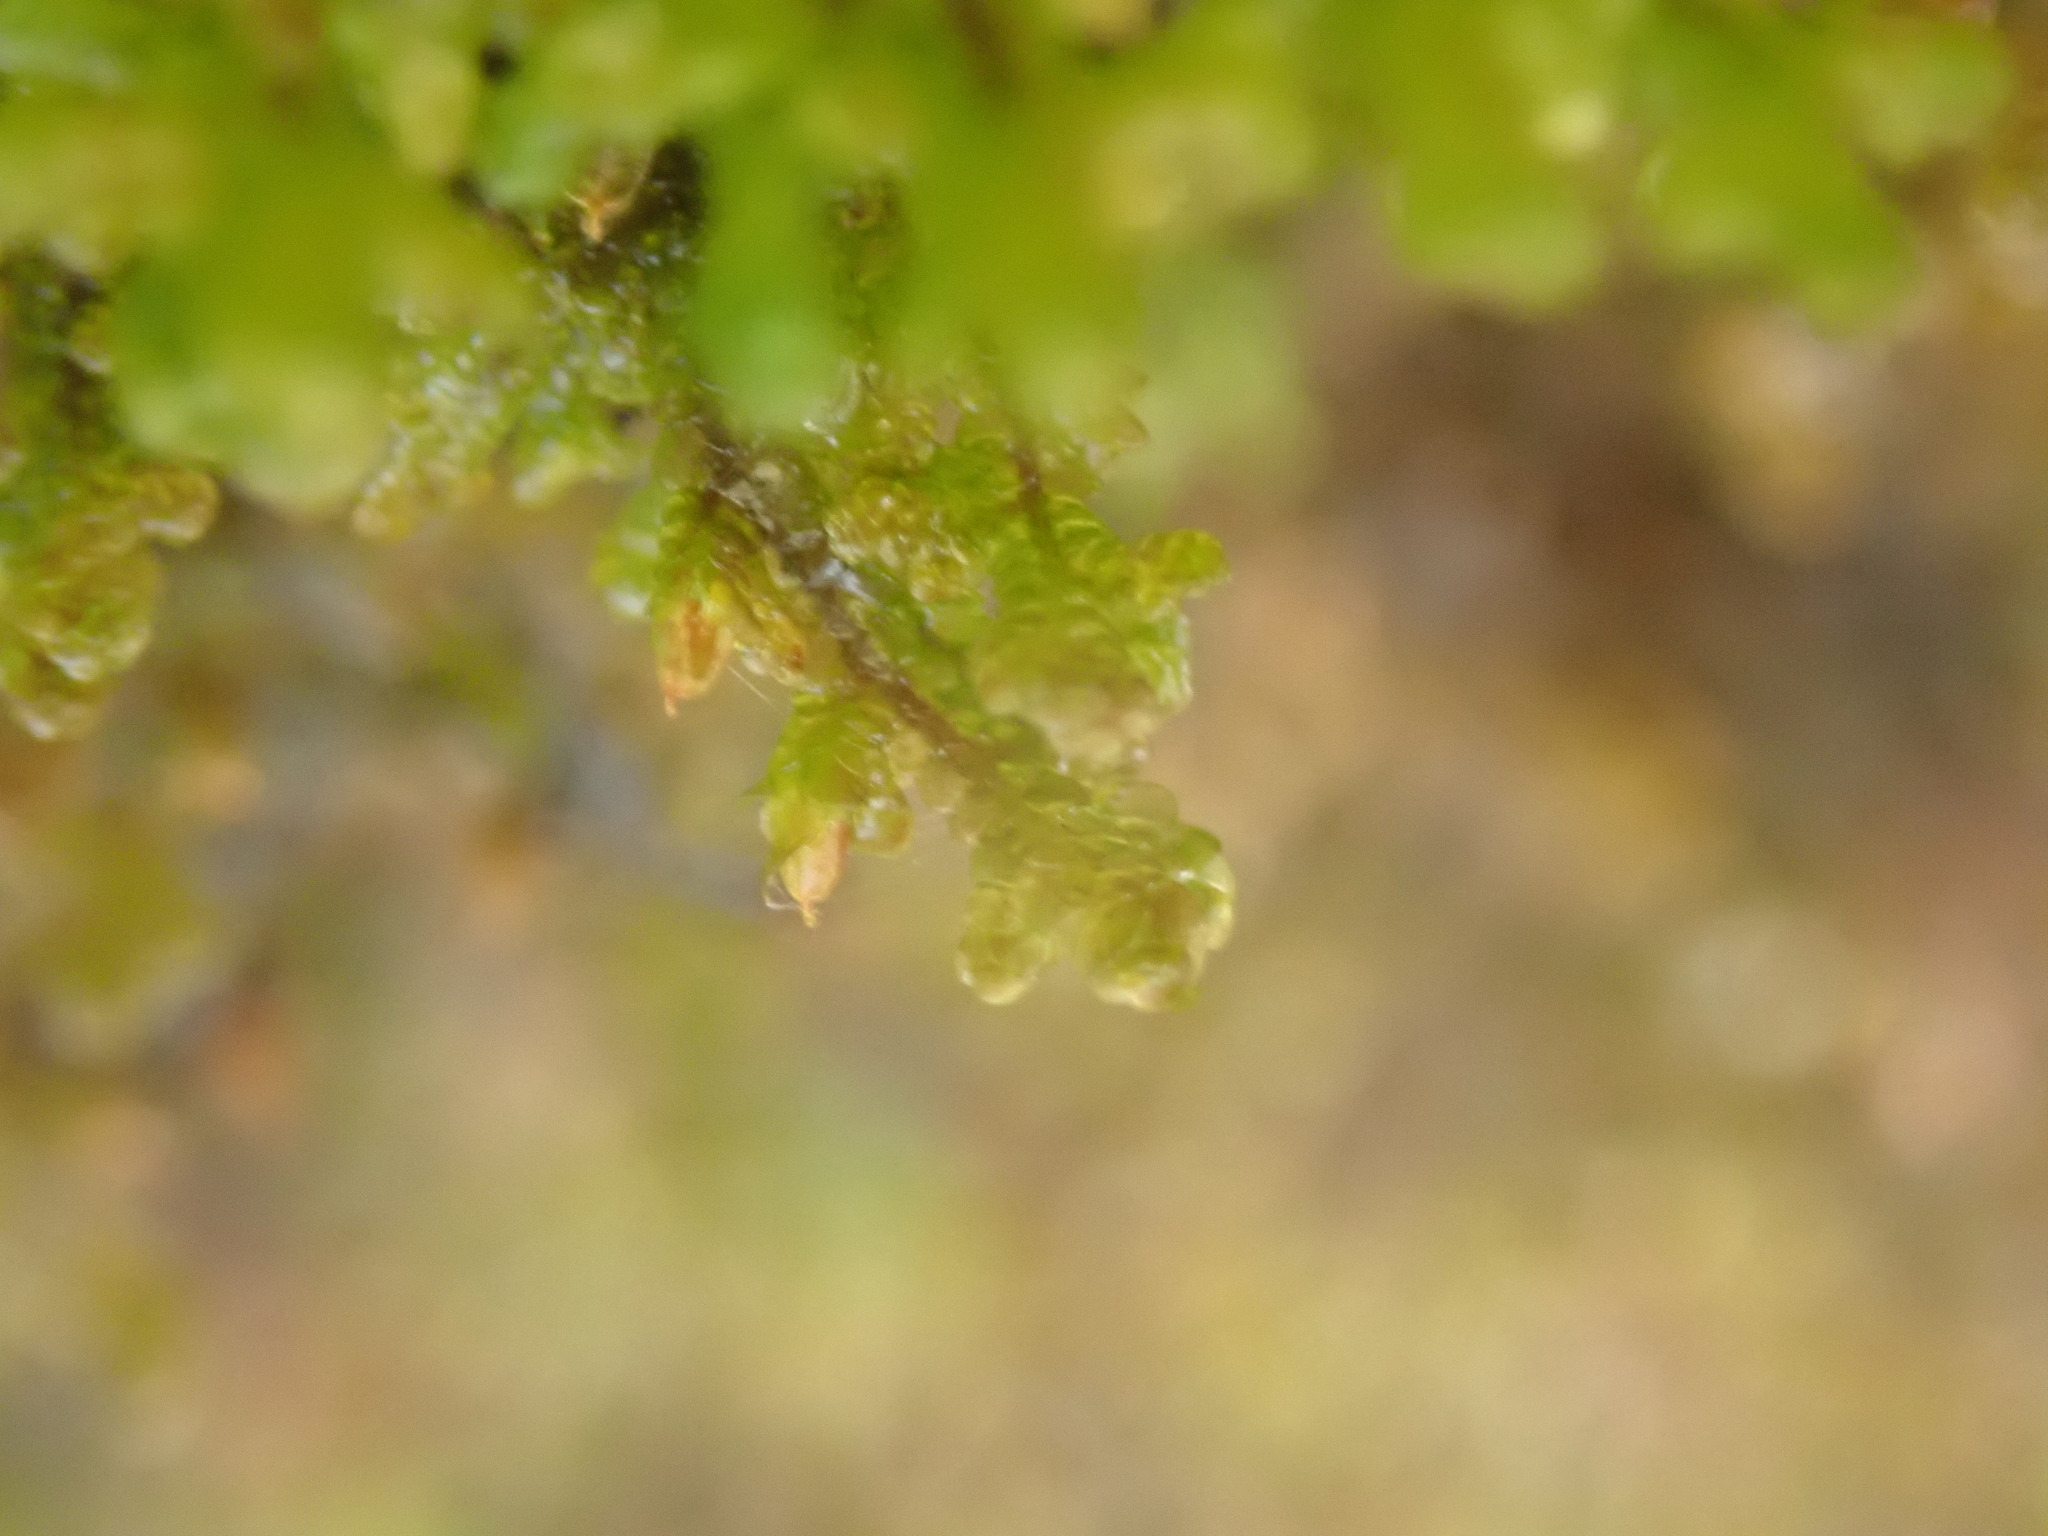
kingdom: Plantae
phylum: Marchantiophyta
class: Jungermanniopsida
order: Porellales
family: Frullaniaceae
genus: Frullania
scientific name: Frullania tamarisci
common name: Tamarisk scalewort
